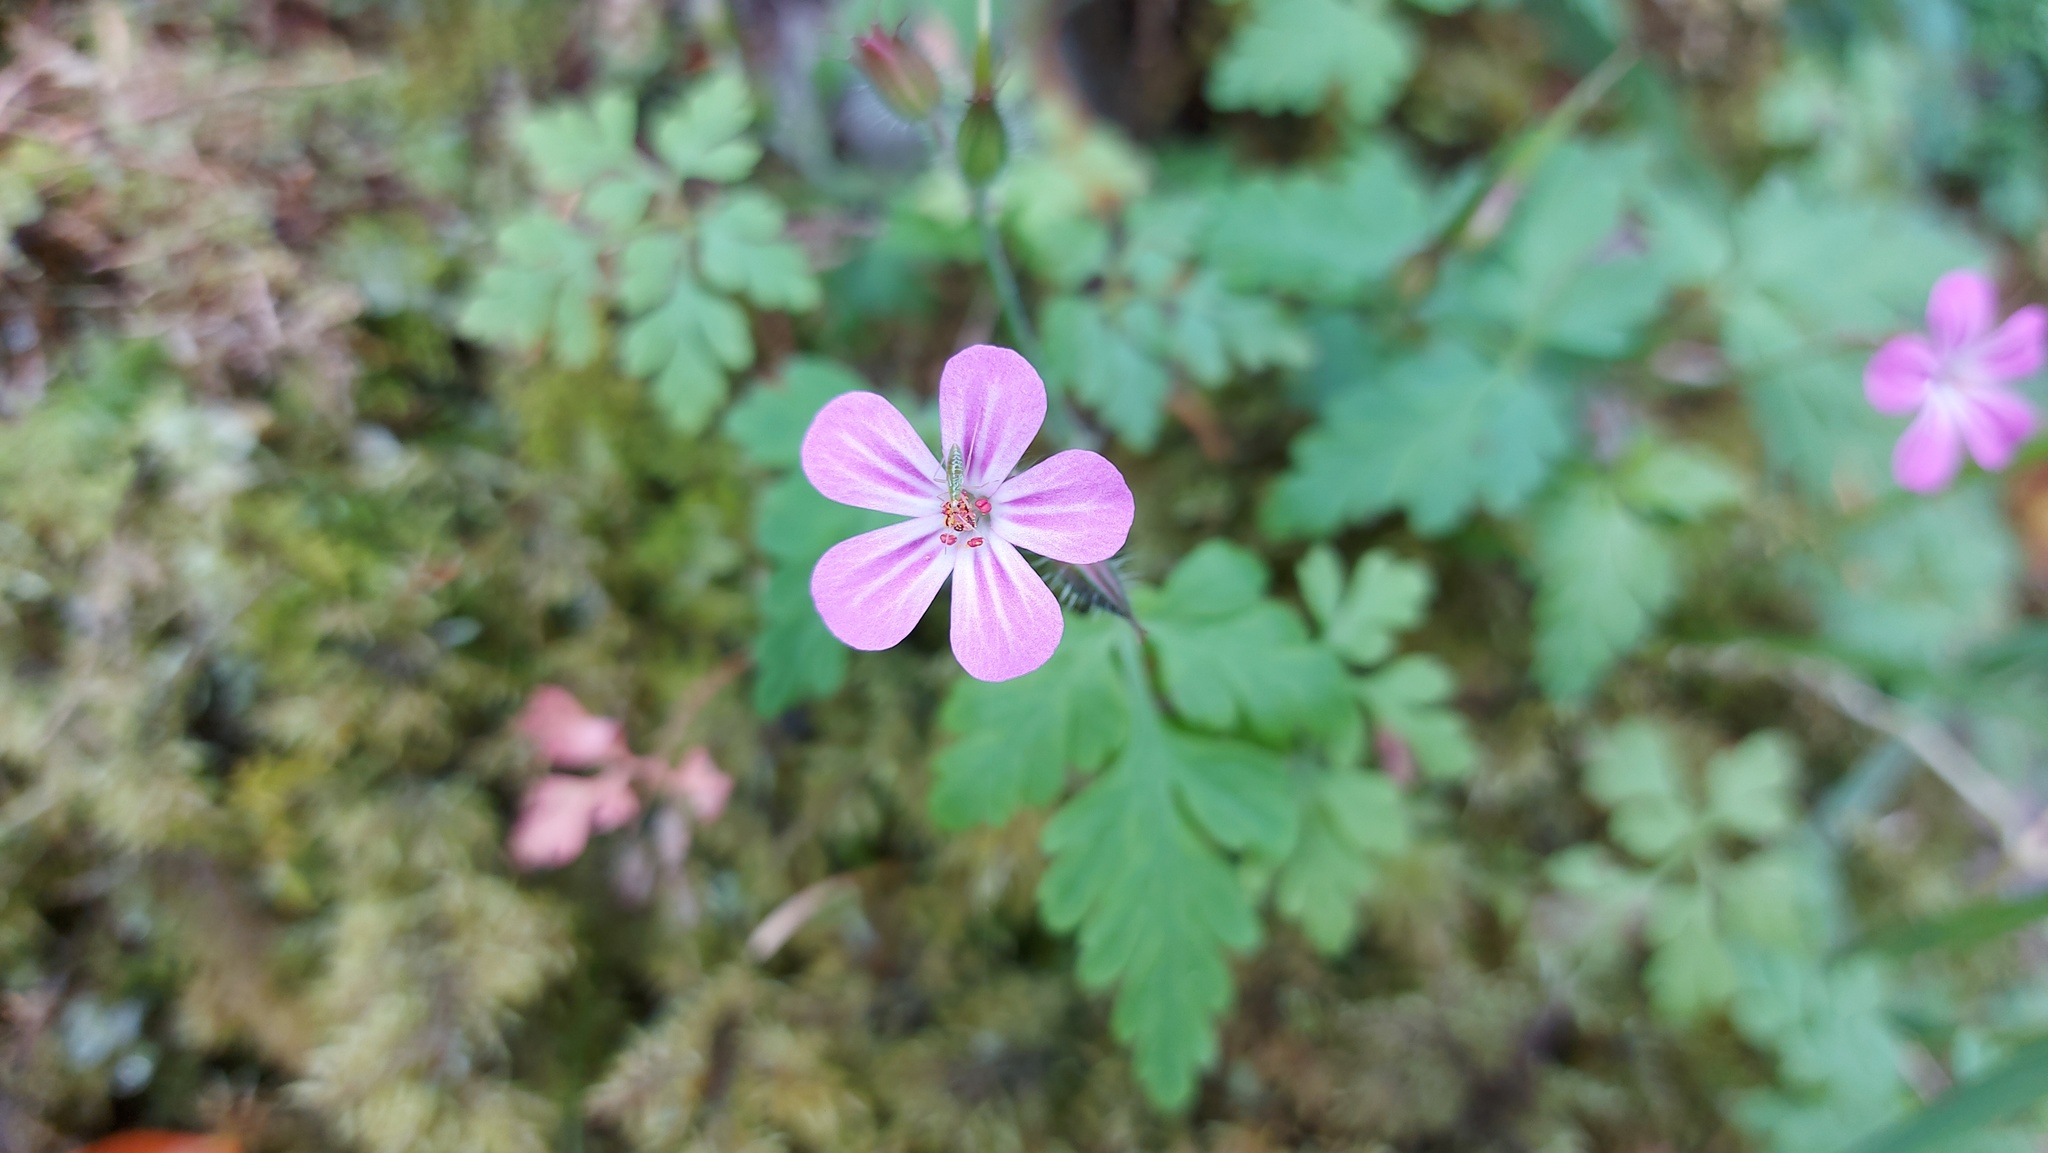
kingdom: Plantae
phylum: Tracheophyta
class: Magnoliopsida
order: Geraniales
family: Geraniaceae
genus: Geranium
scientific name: Geranium robertianum
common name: Herb-robert
